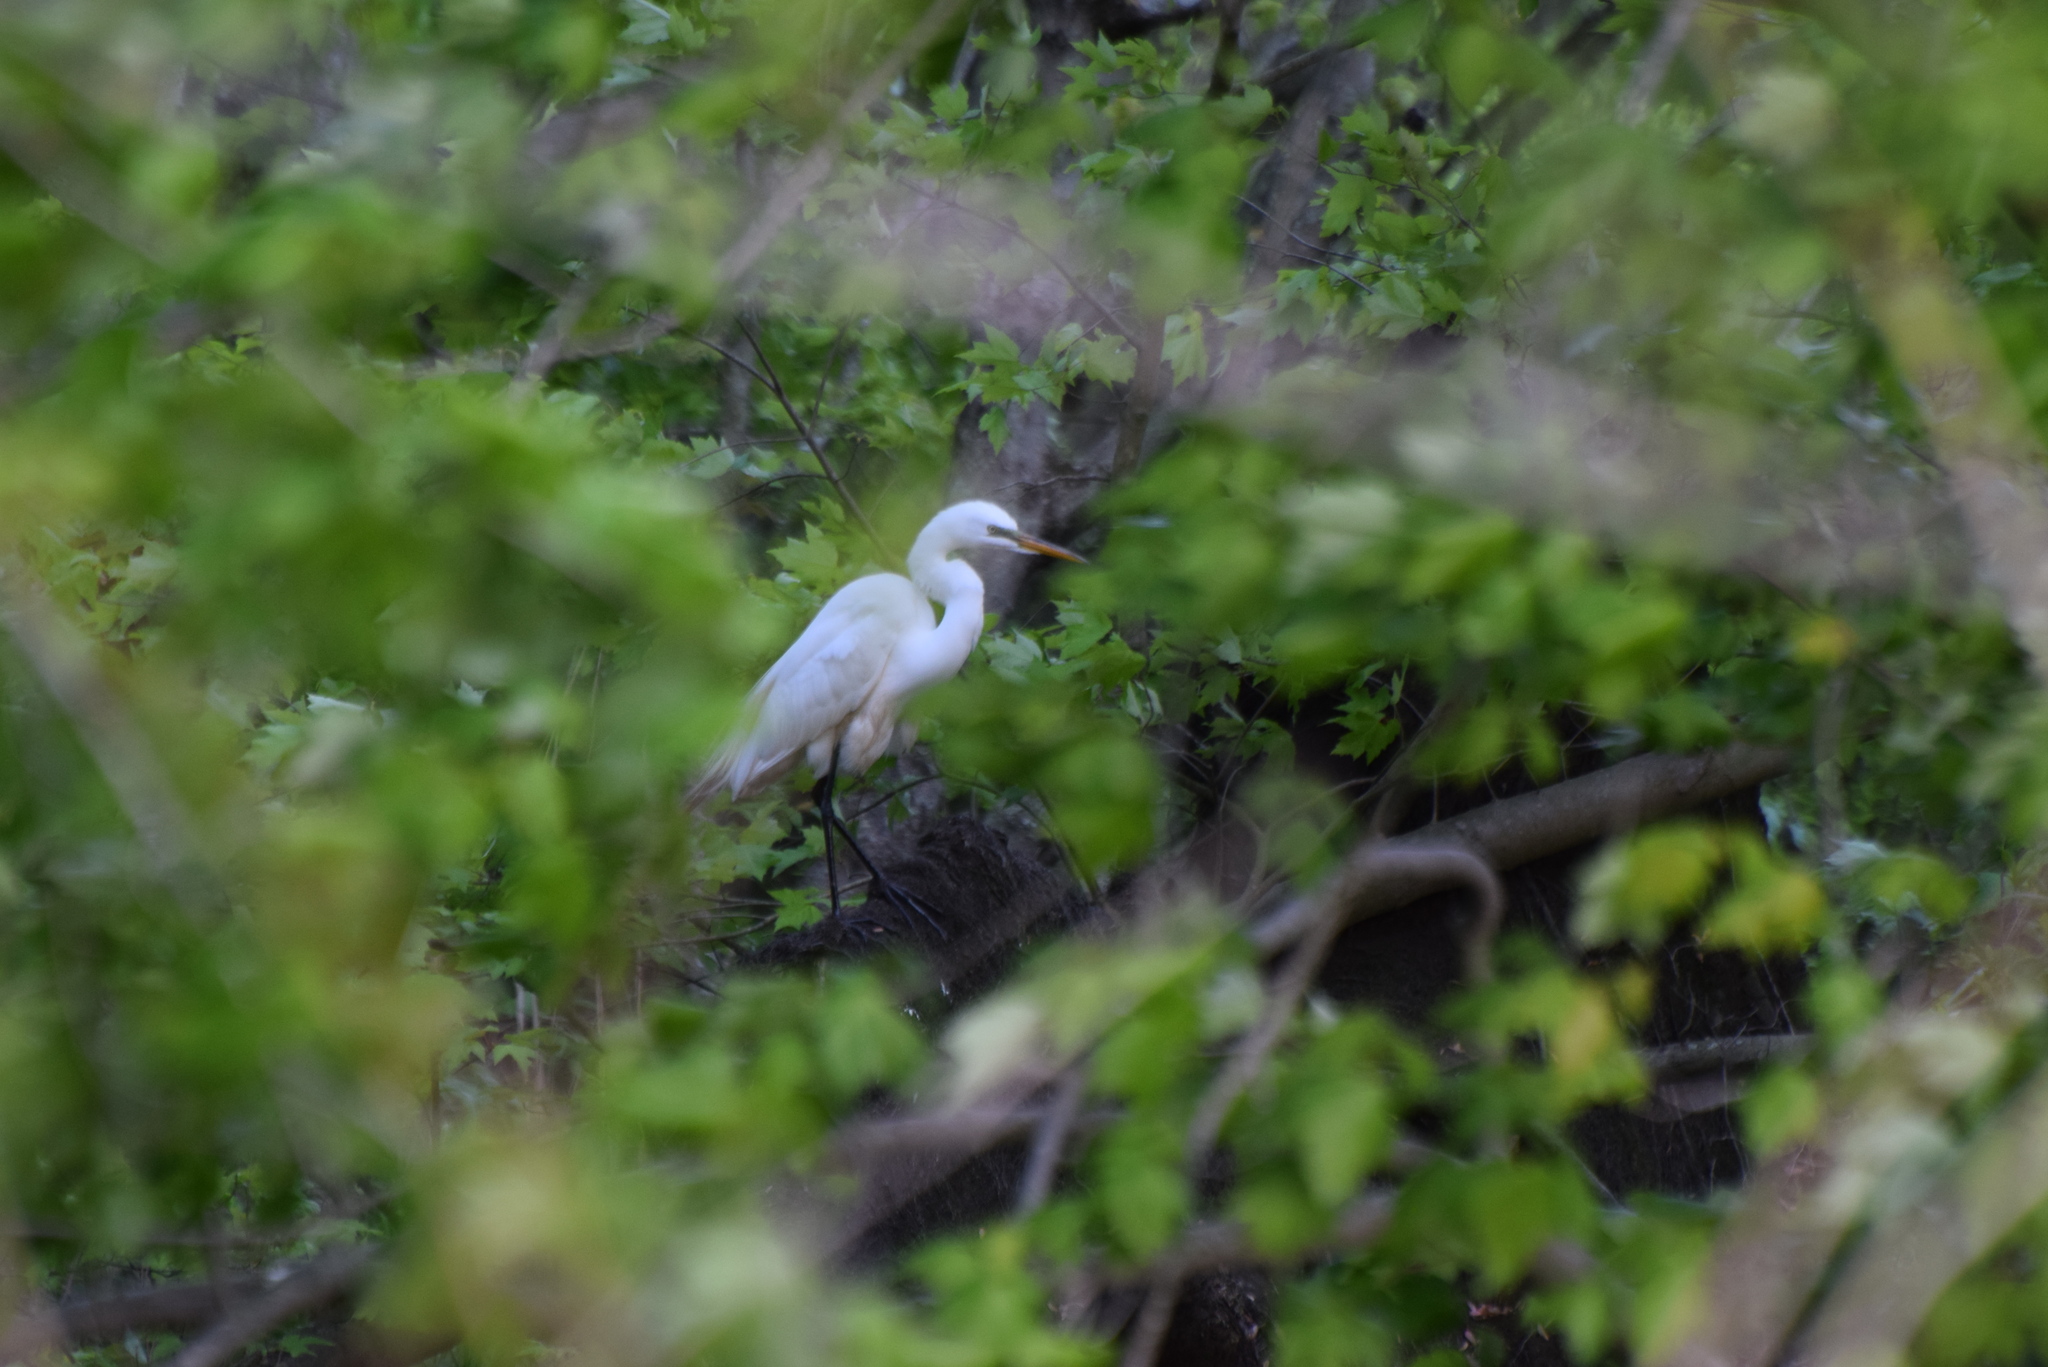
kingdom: Animalia
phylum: Chordata
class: Aves
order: Pelecaniformes
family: Ardeidae
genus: Ardea
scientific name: Ardea alba
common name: Great egret
